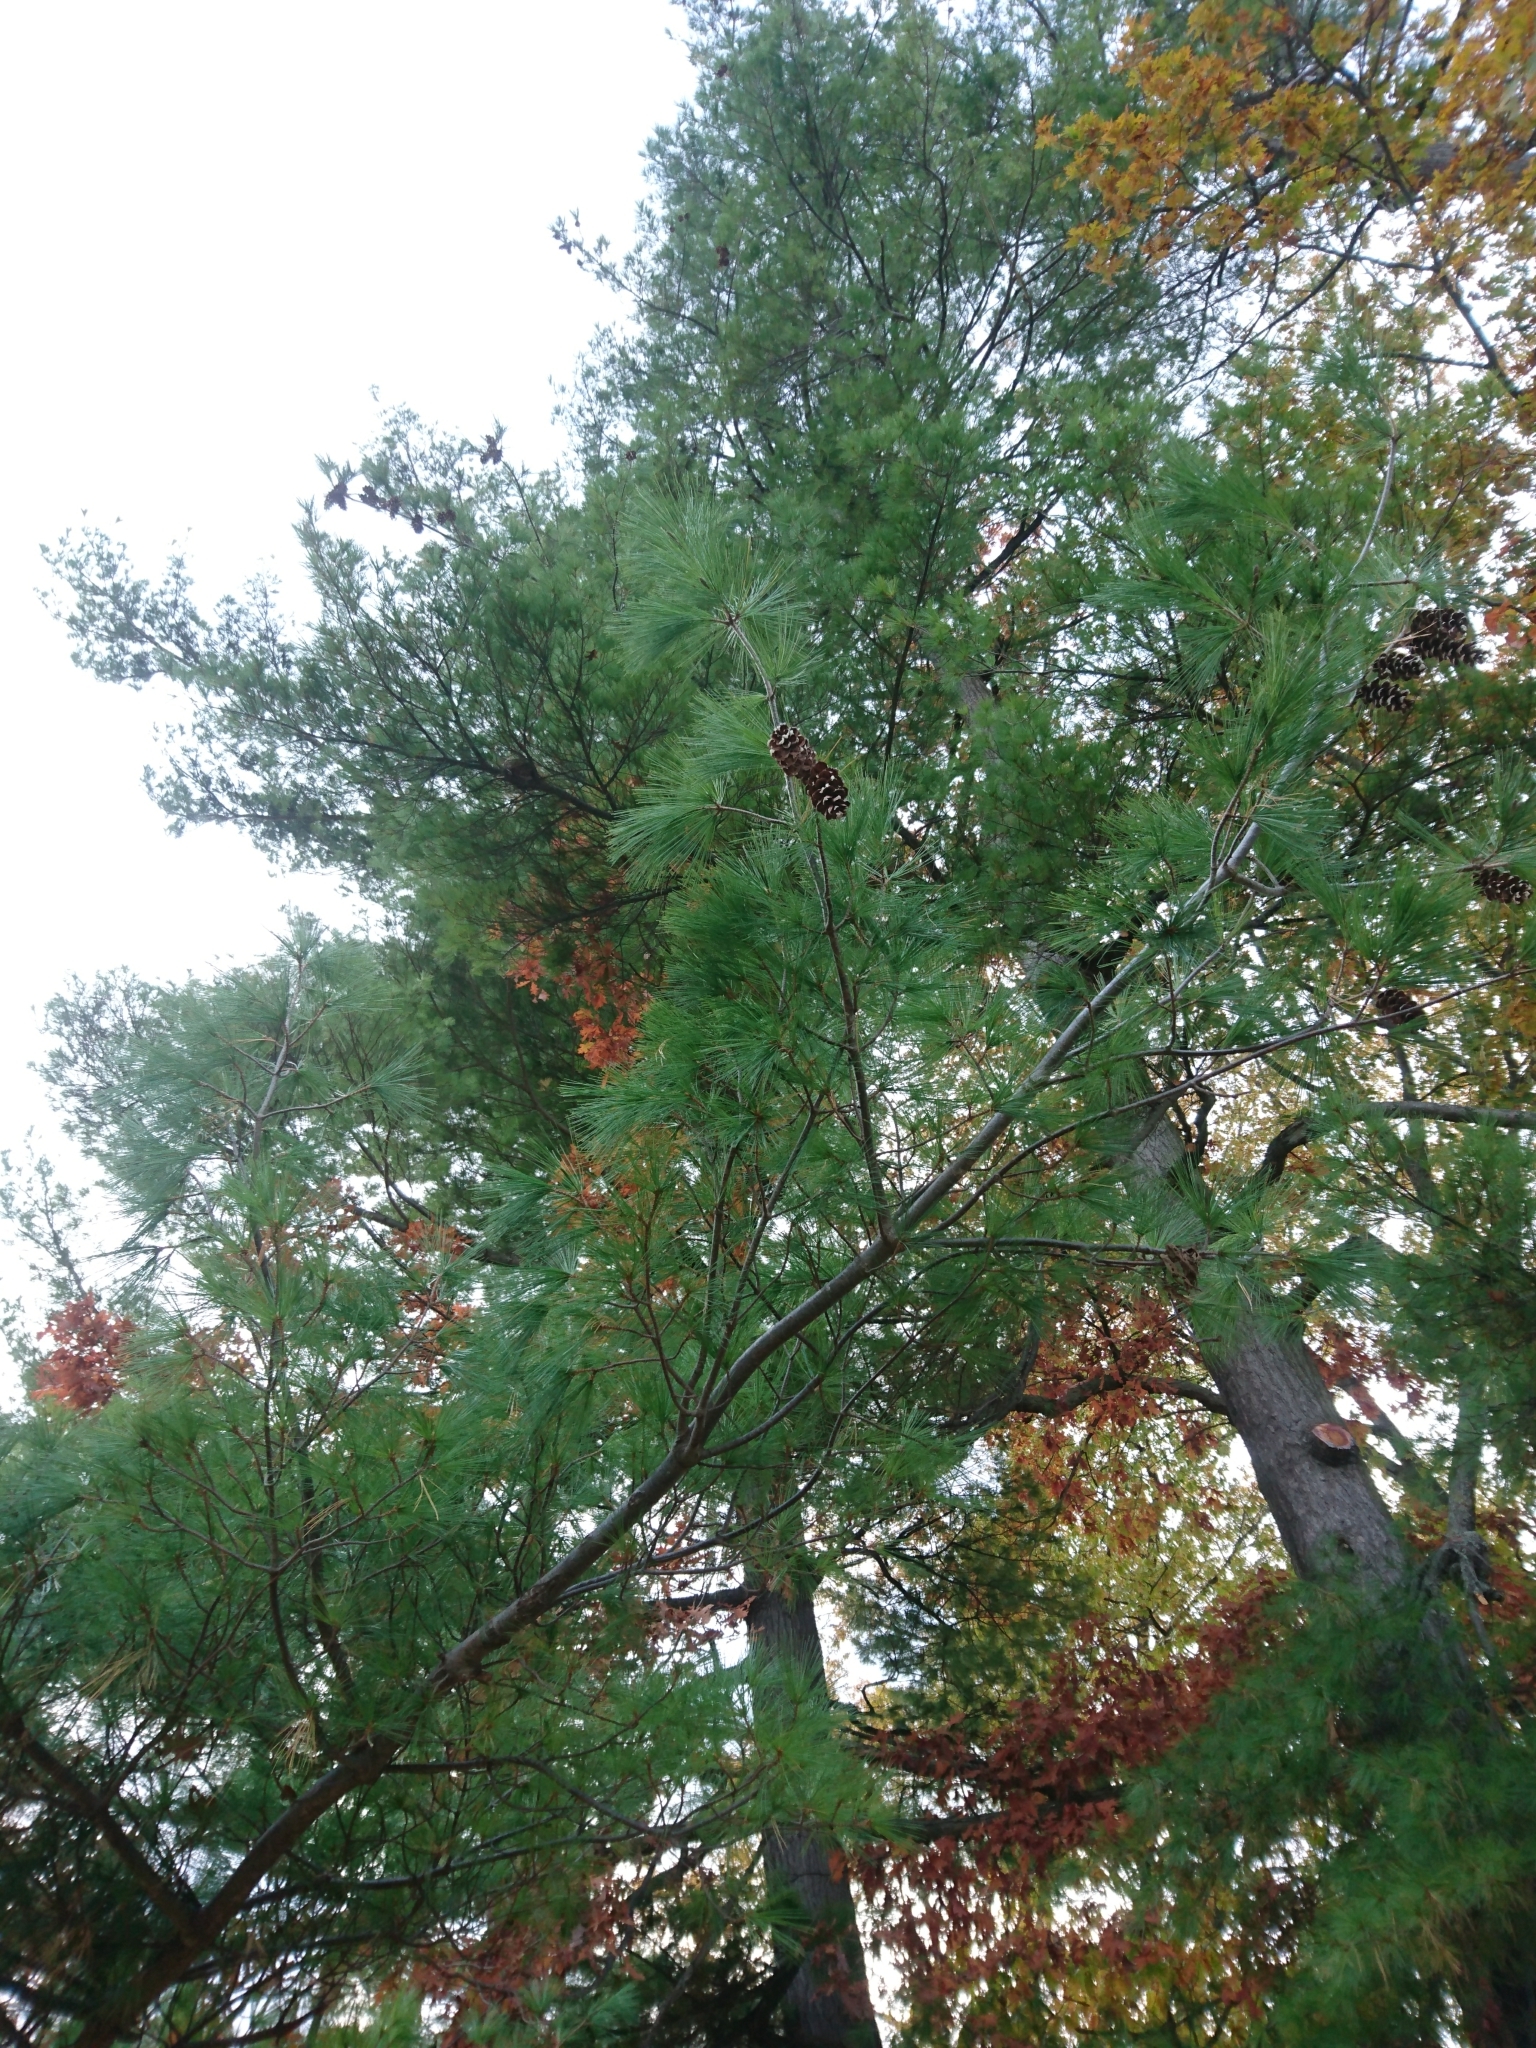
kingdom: Plantae
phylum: Tracheophyta
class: Pinopsida
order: Pinales
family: Pinaceae
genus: Pinus
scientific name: Pinus strobus
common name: Weymouth pine
